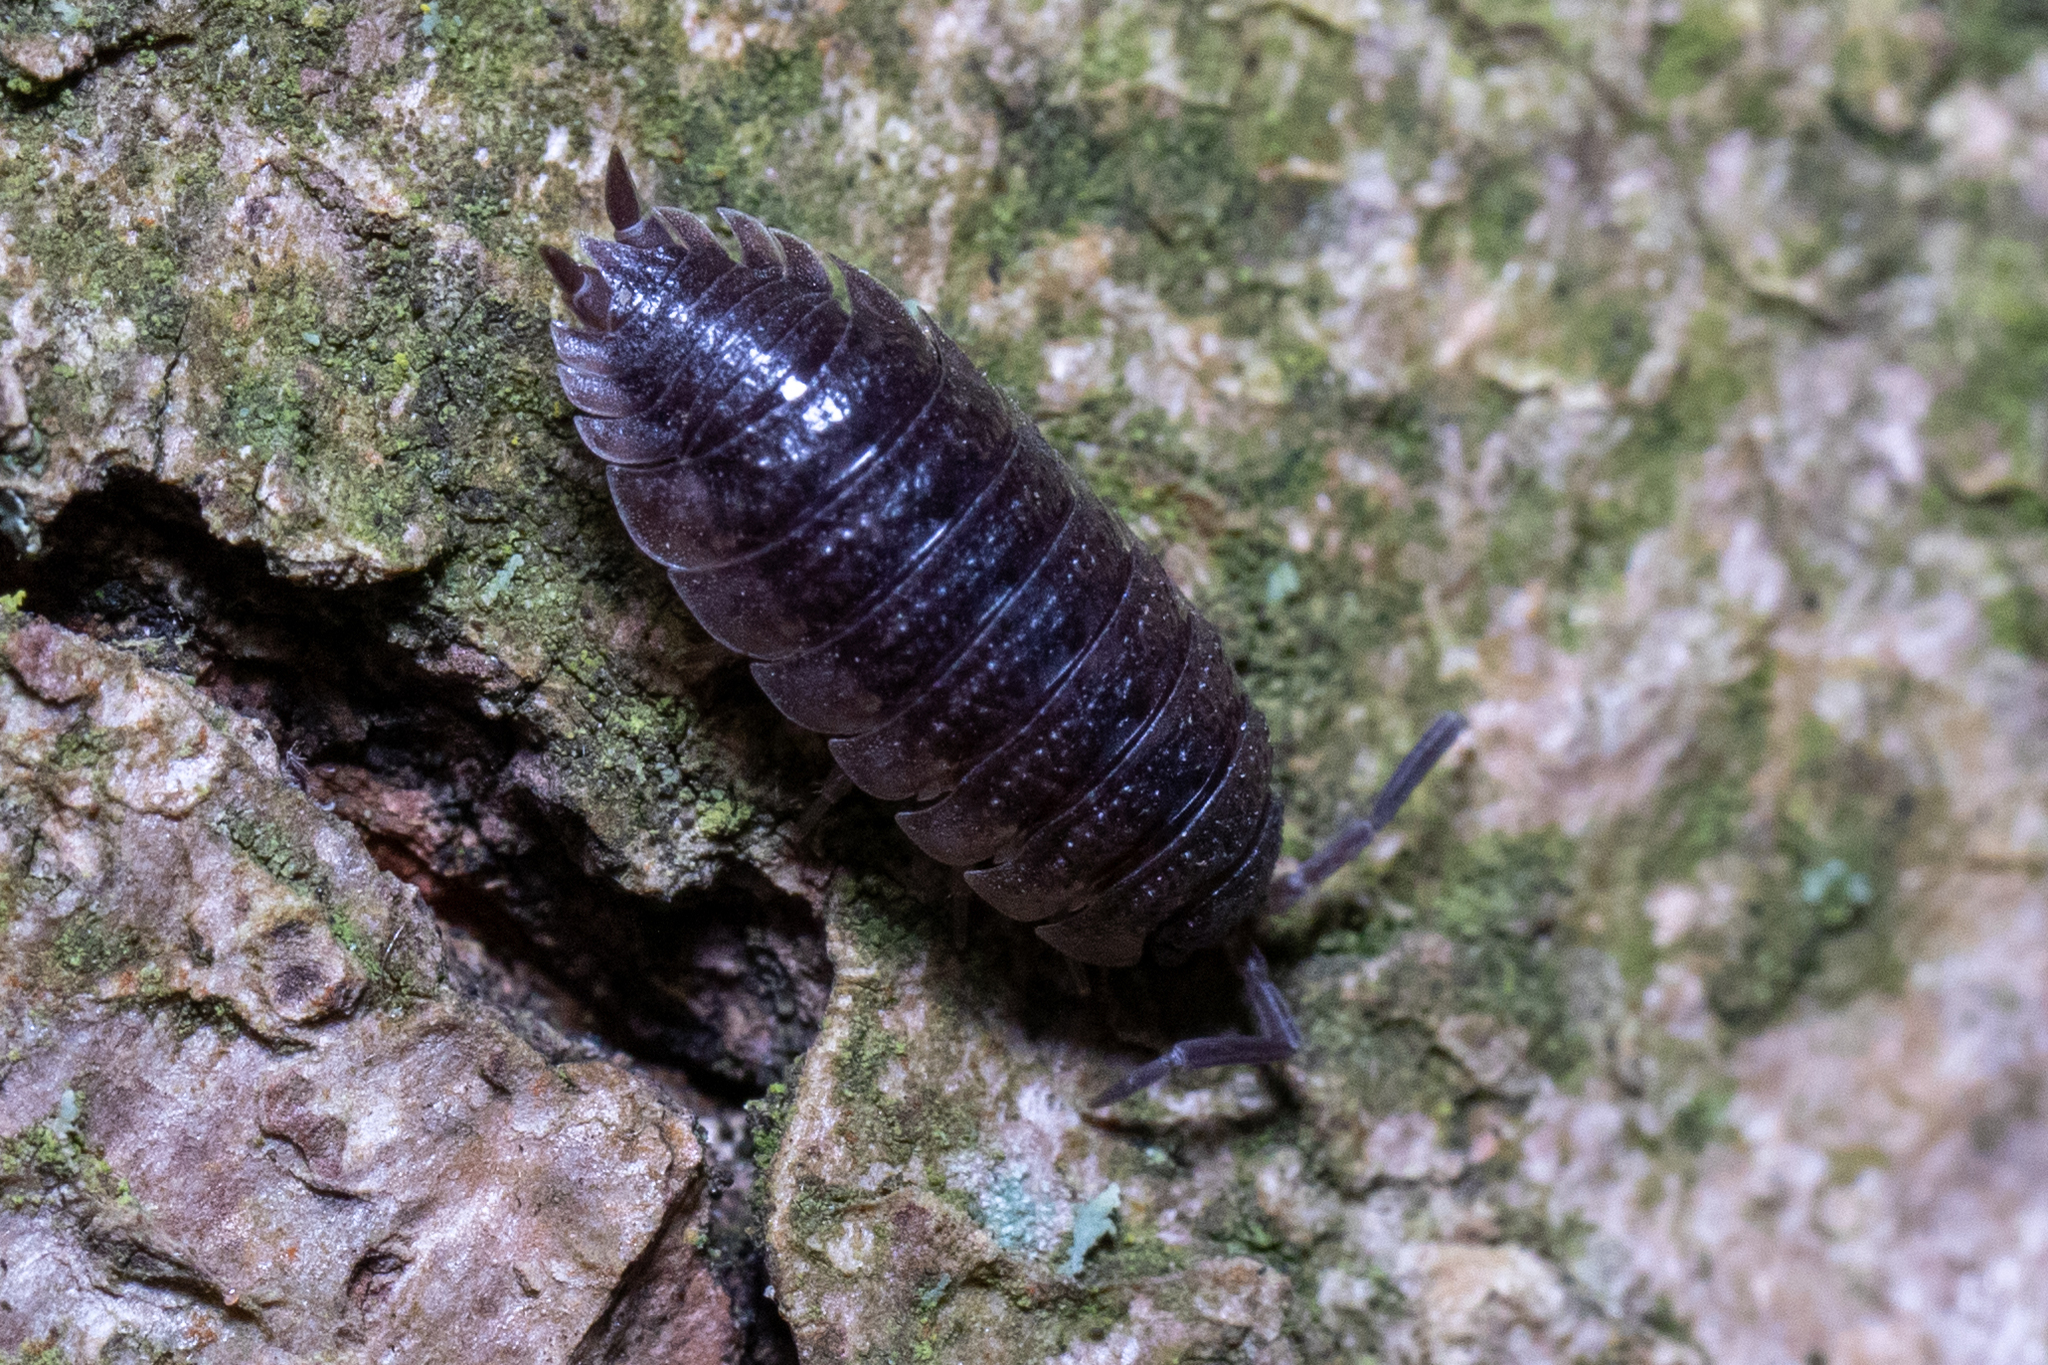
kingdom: Animalia
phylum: Arthropoda
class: Malacostraca
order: Isopoda
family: Porcellionidae
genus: Porcellio
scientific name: Porcellio scaber
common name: Common rough woodlouse
